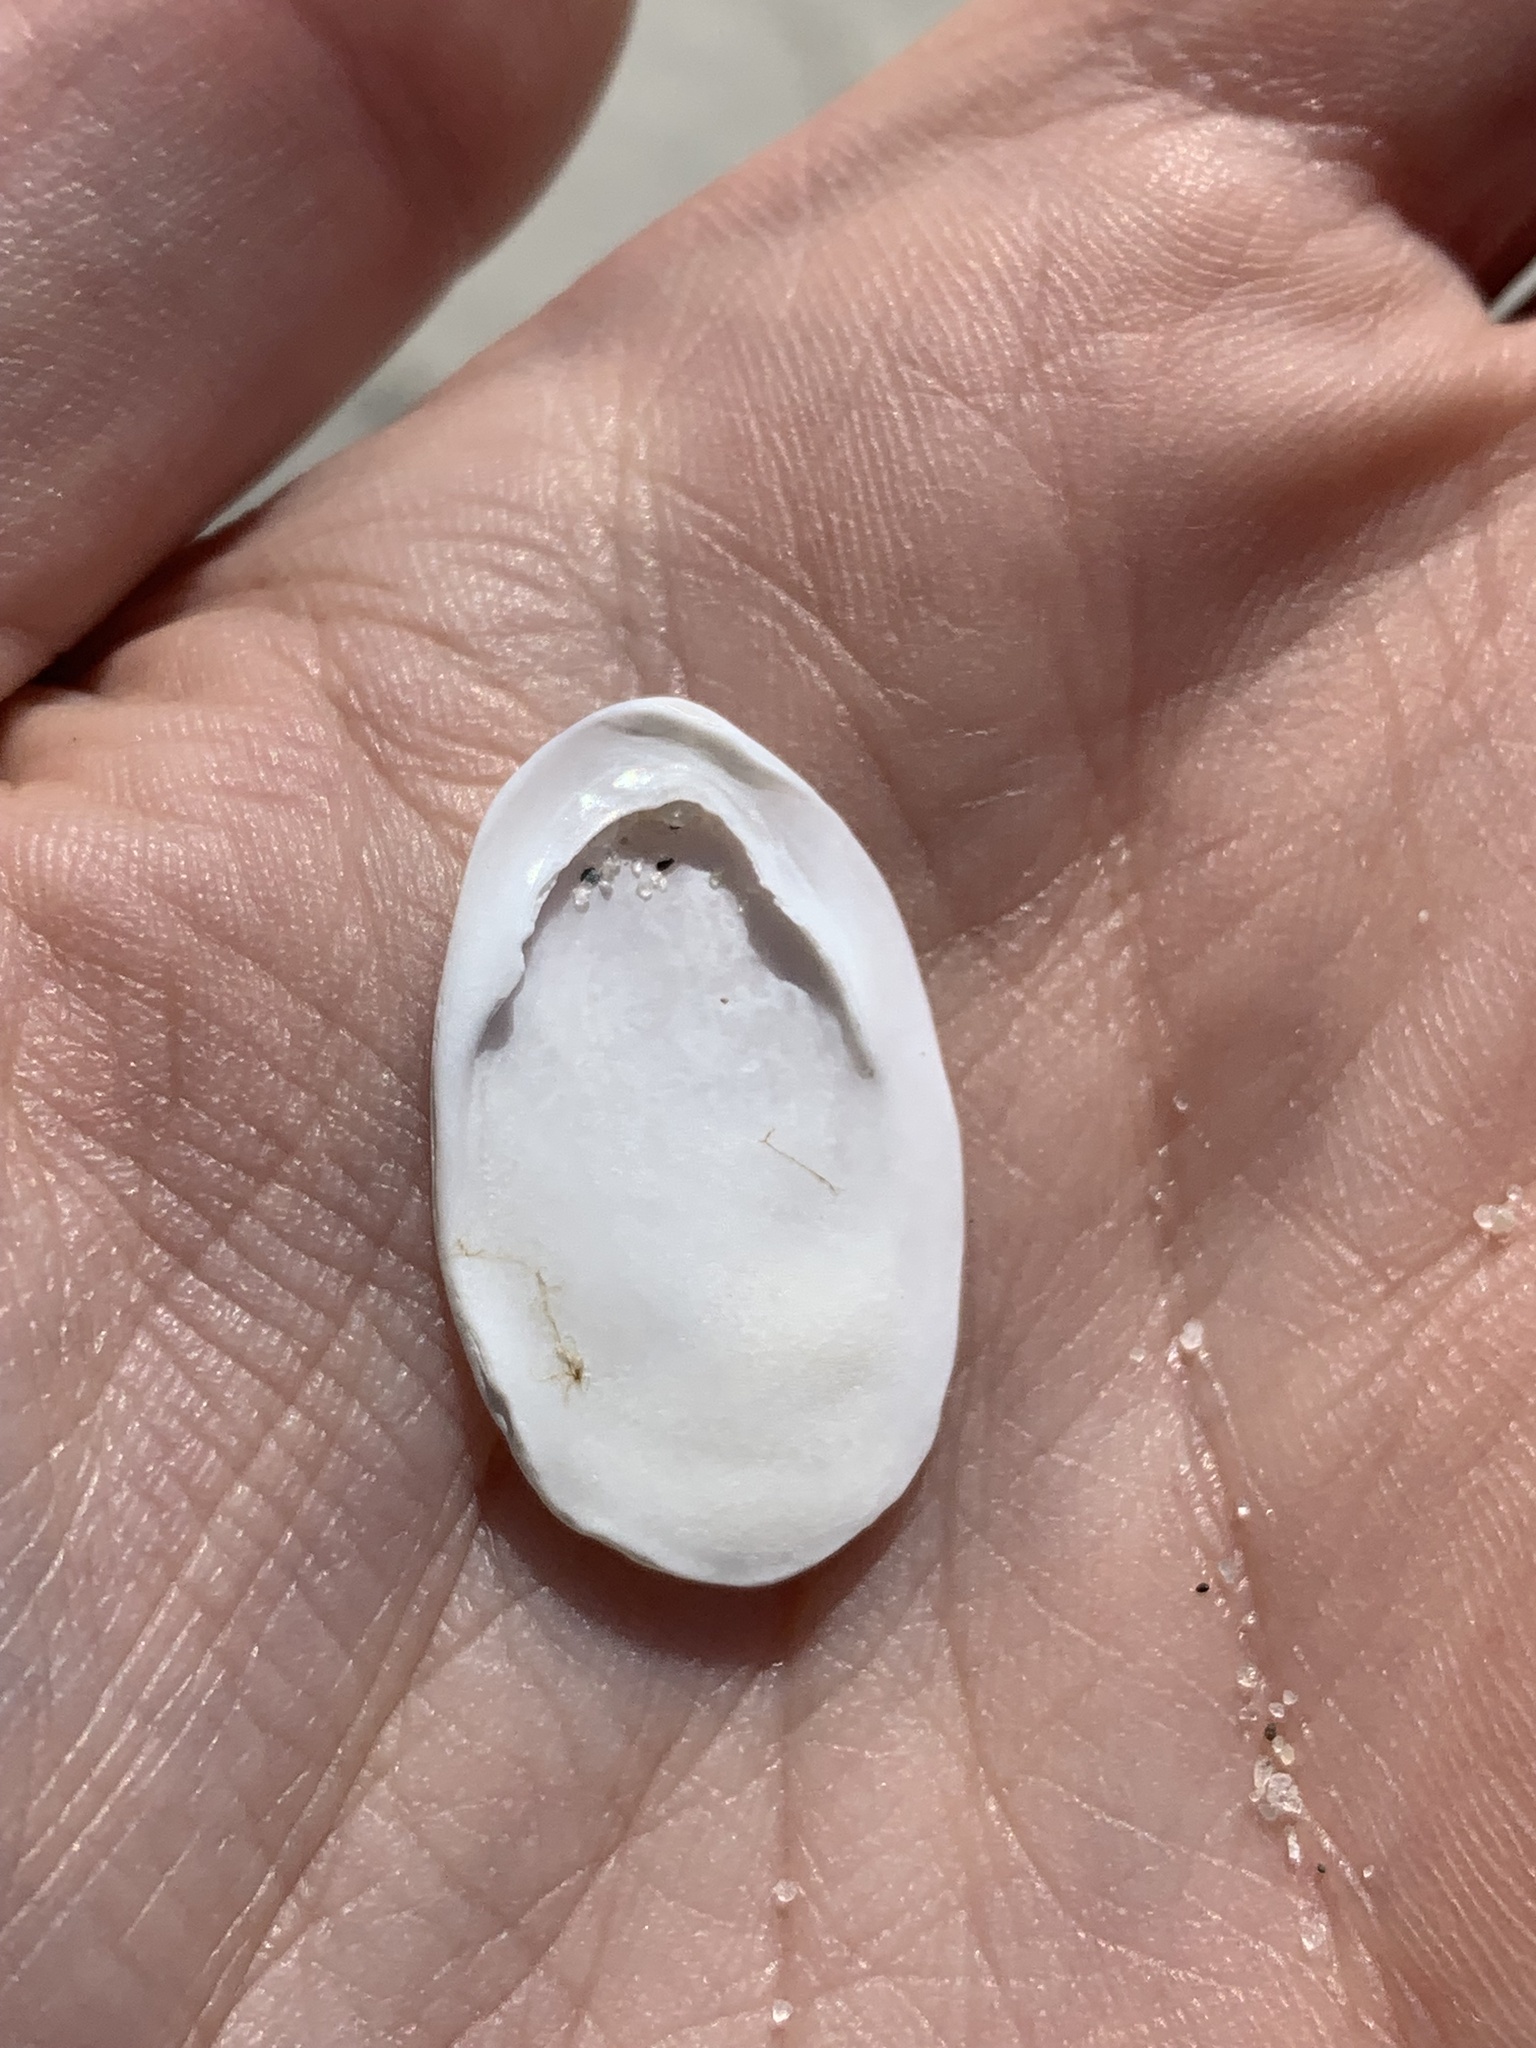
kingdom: Animalia
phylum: Mollusca
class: Gastropoda
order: Littorinimorpha
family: Calyptraeidae
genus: Crepidula
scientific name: Crepidula plana
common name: Eastern white slippersnail
